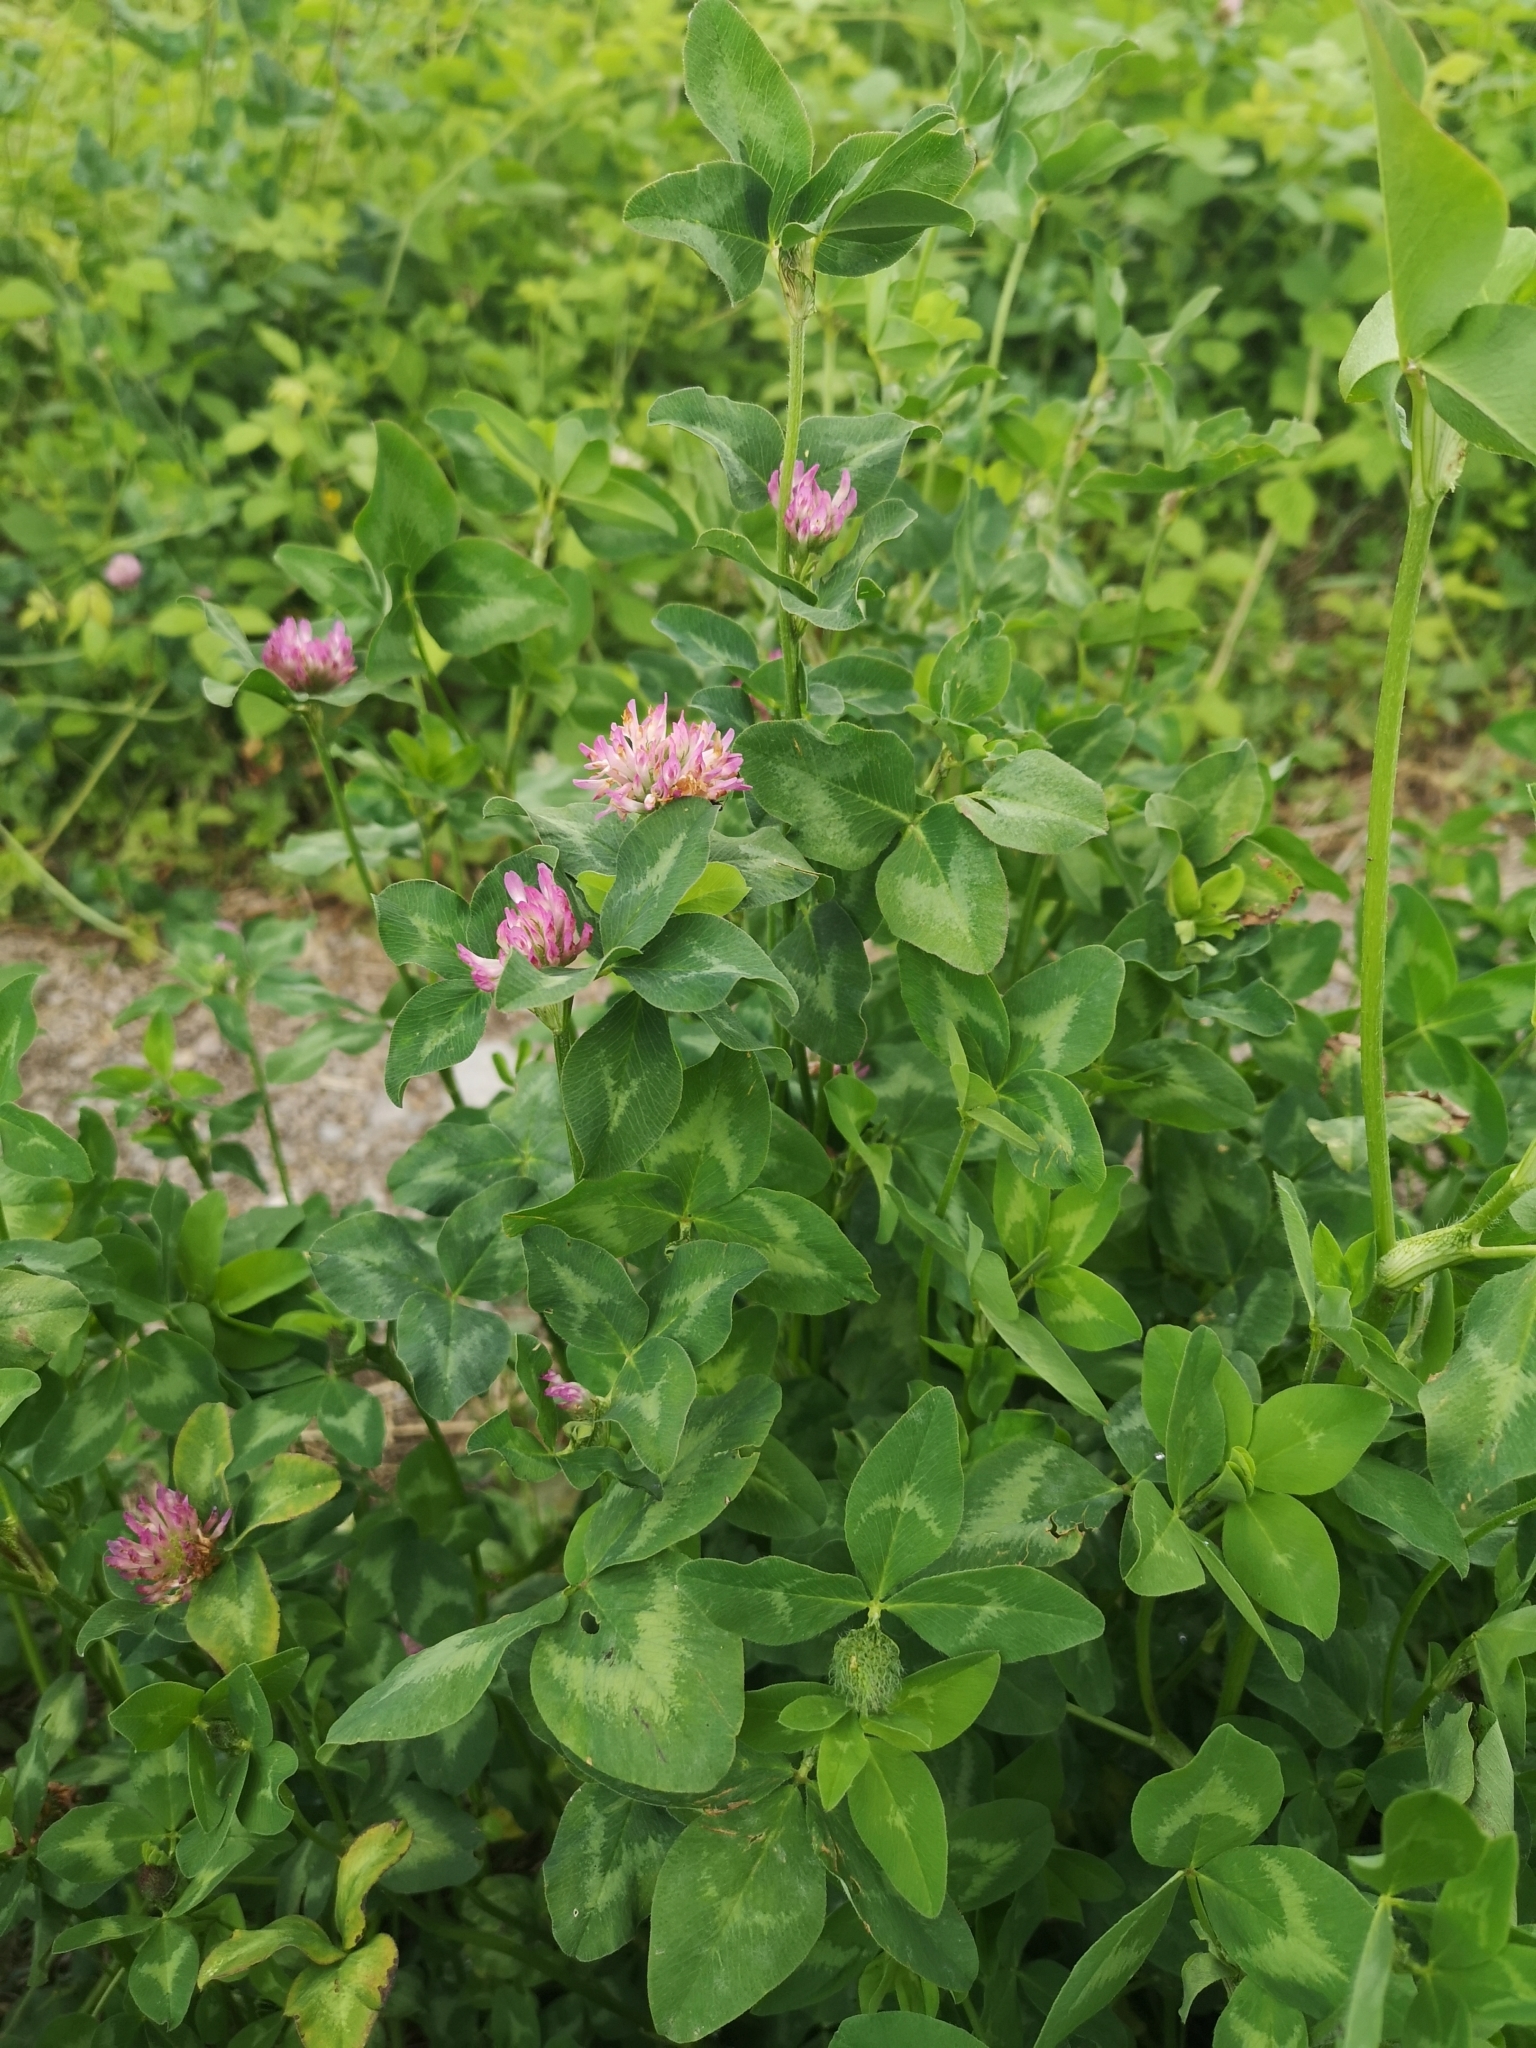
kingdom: Plantae
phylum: Tracheophyta
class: Magnoliopsida
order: Fabales
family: Fabaceae
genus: Trifolium
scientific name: Trifolium pratense
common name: Red clover
